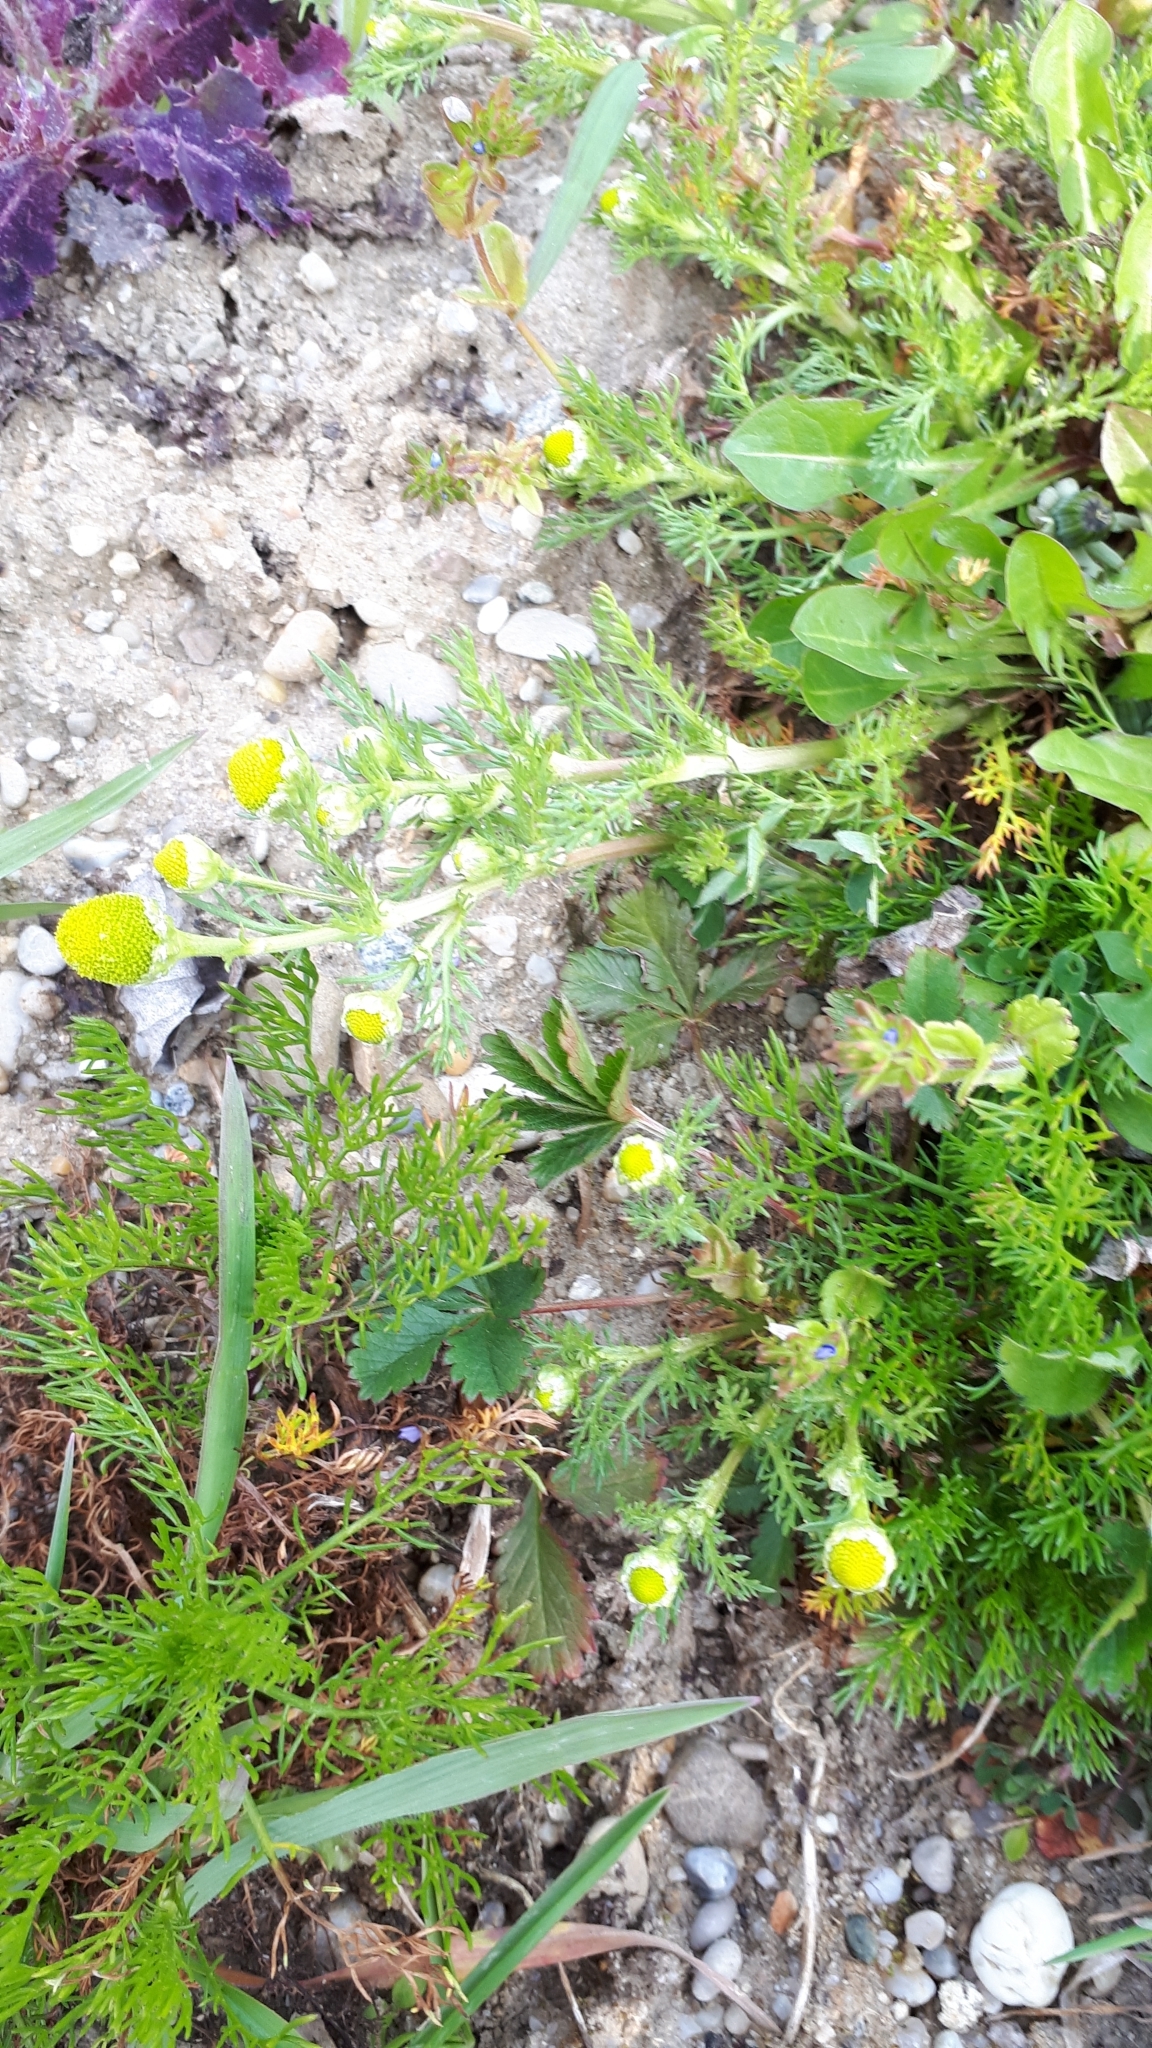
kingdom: Plantae
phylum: Tracheophyta
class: Magnoliopsida
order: Asterales
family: Asteraceae
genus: Matricaria
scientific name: Matricaria discoidea
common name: Disc mayweed
